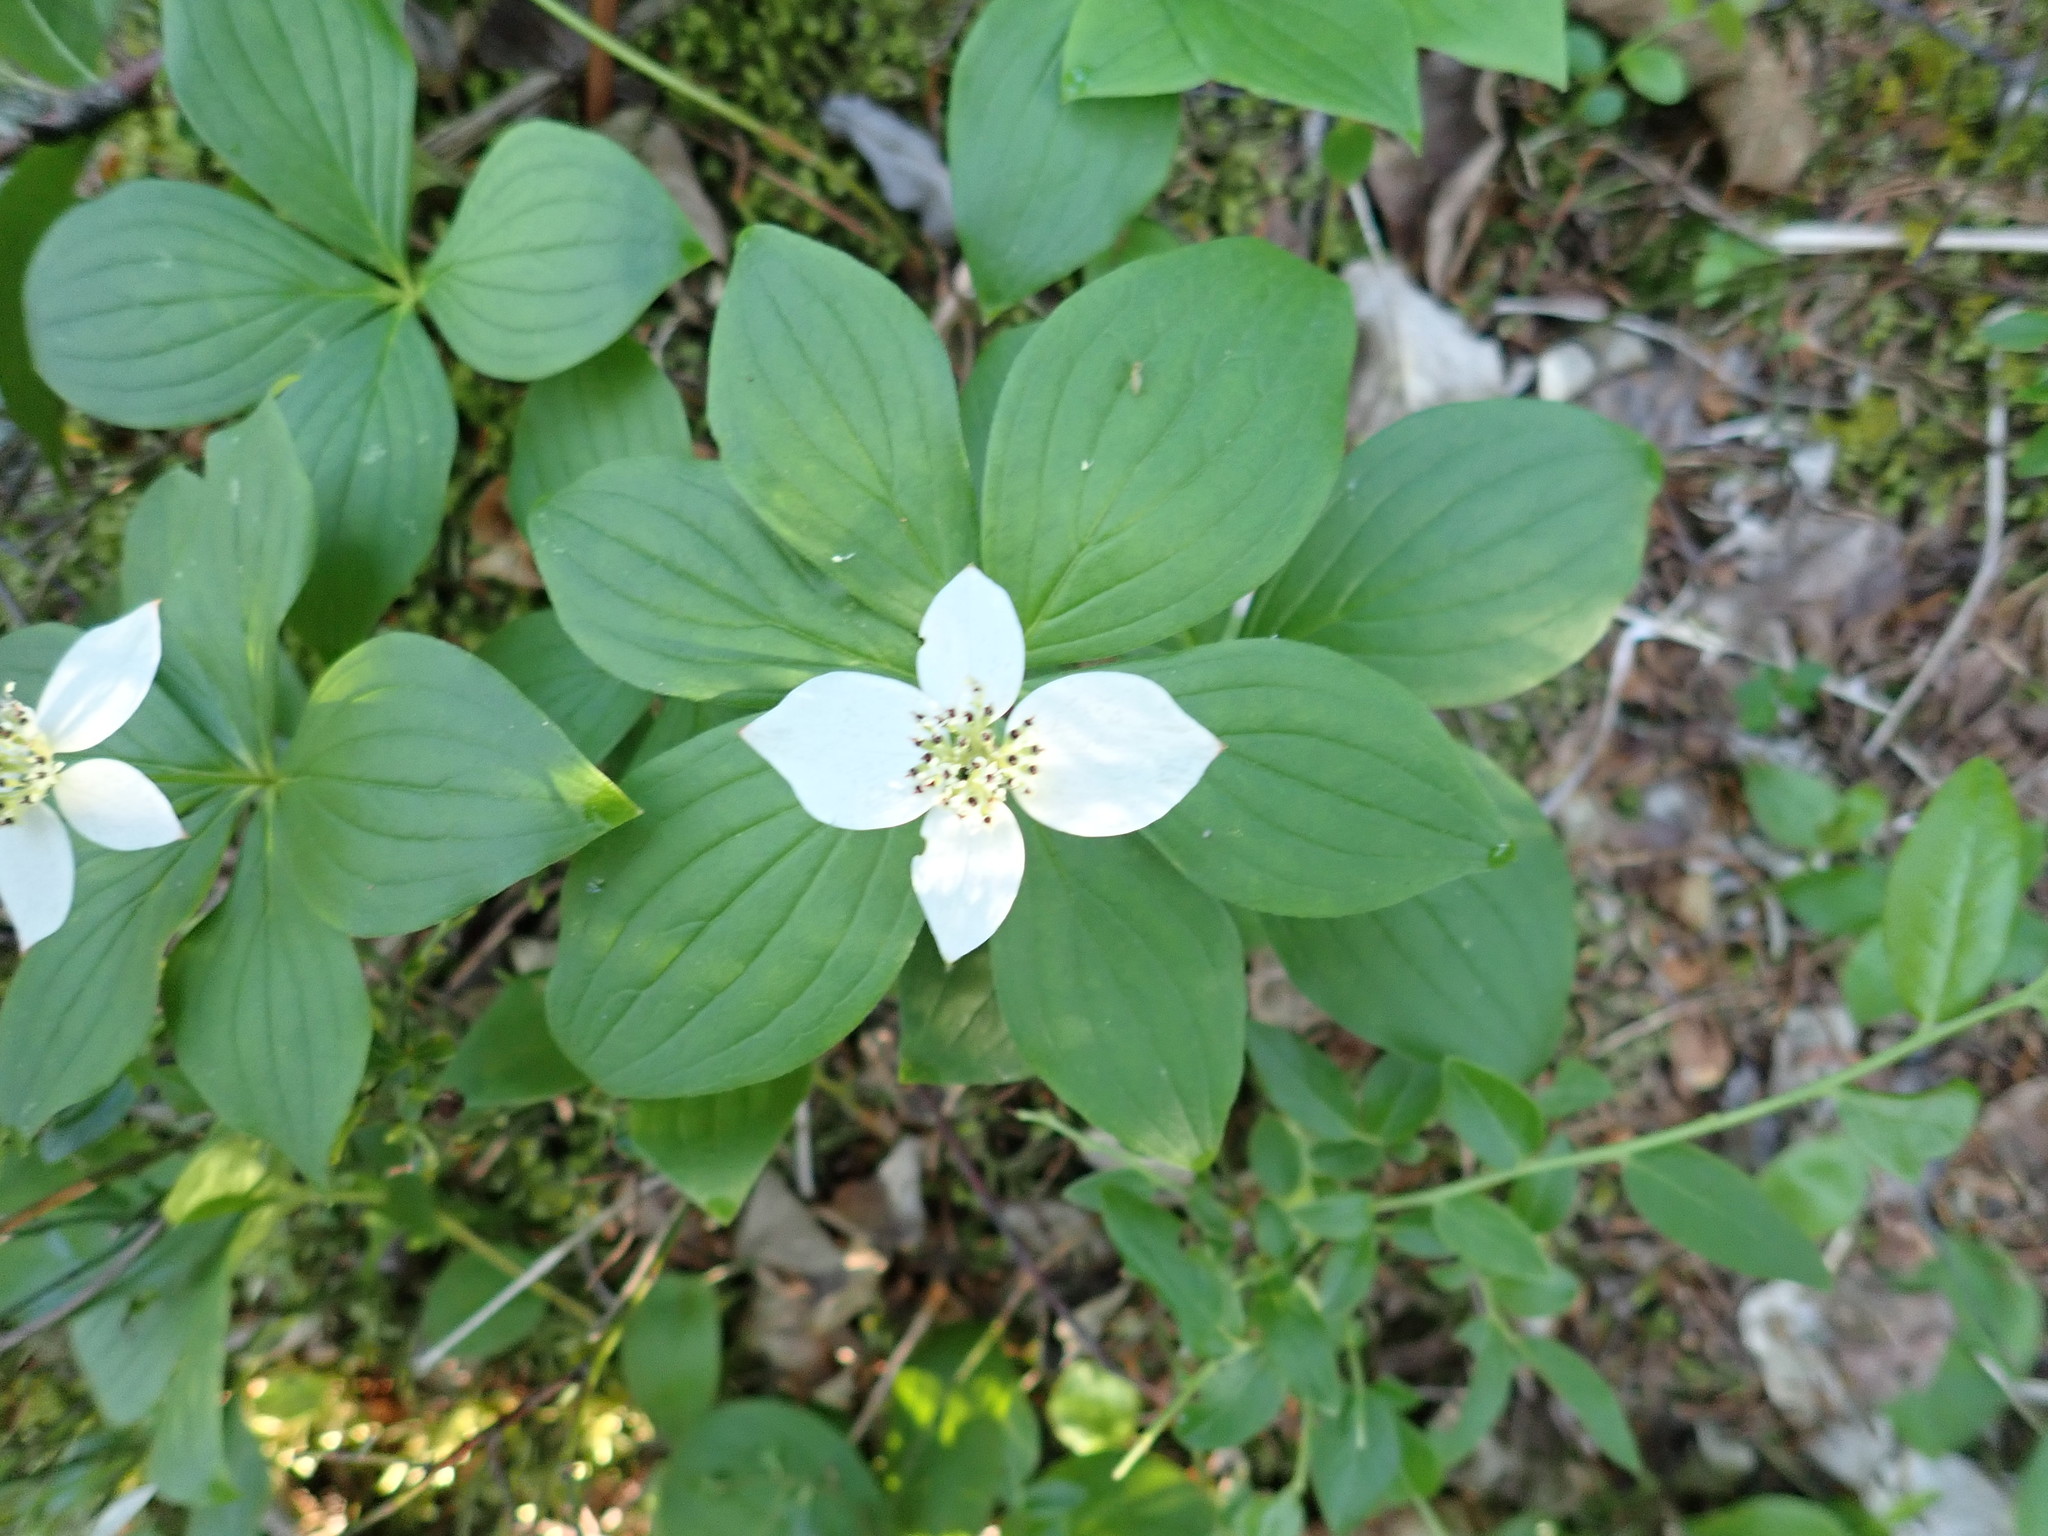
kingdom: Plantae
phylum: Tracheophyta
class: Magnoliopsida
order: Cornales
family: Cornaceae
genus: Cornus
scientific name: Cornus canadensis
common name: Creeping dogwood
